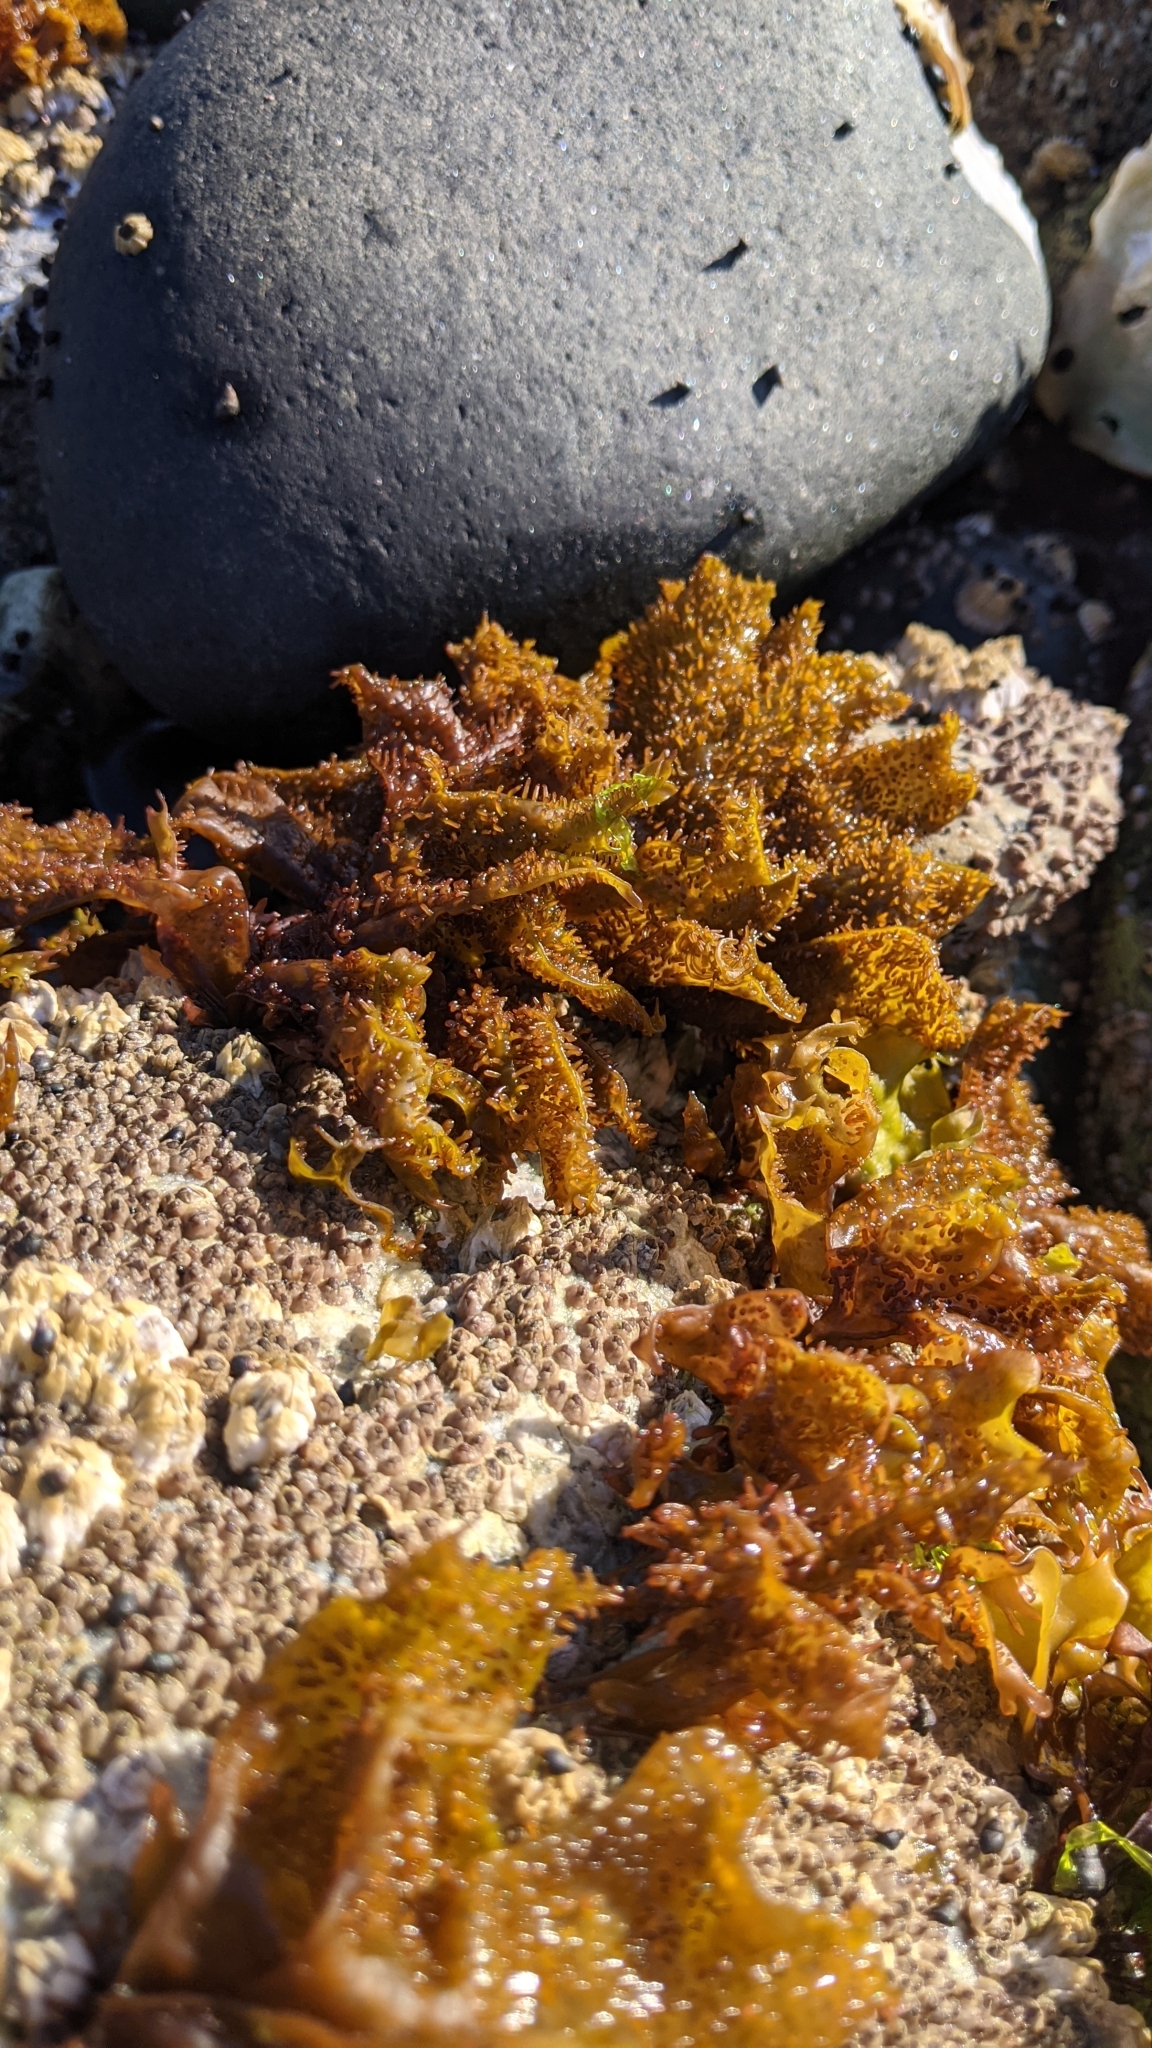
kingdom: Plantae
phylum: Rhodophyta
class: Florideophyceae
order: Gigartinales
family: Phyllophoraceae
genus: Mastocarpus
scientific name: Mastocarpus papillatus
